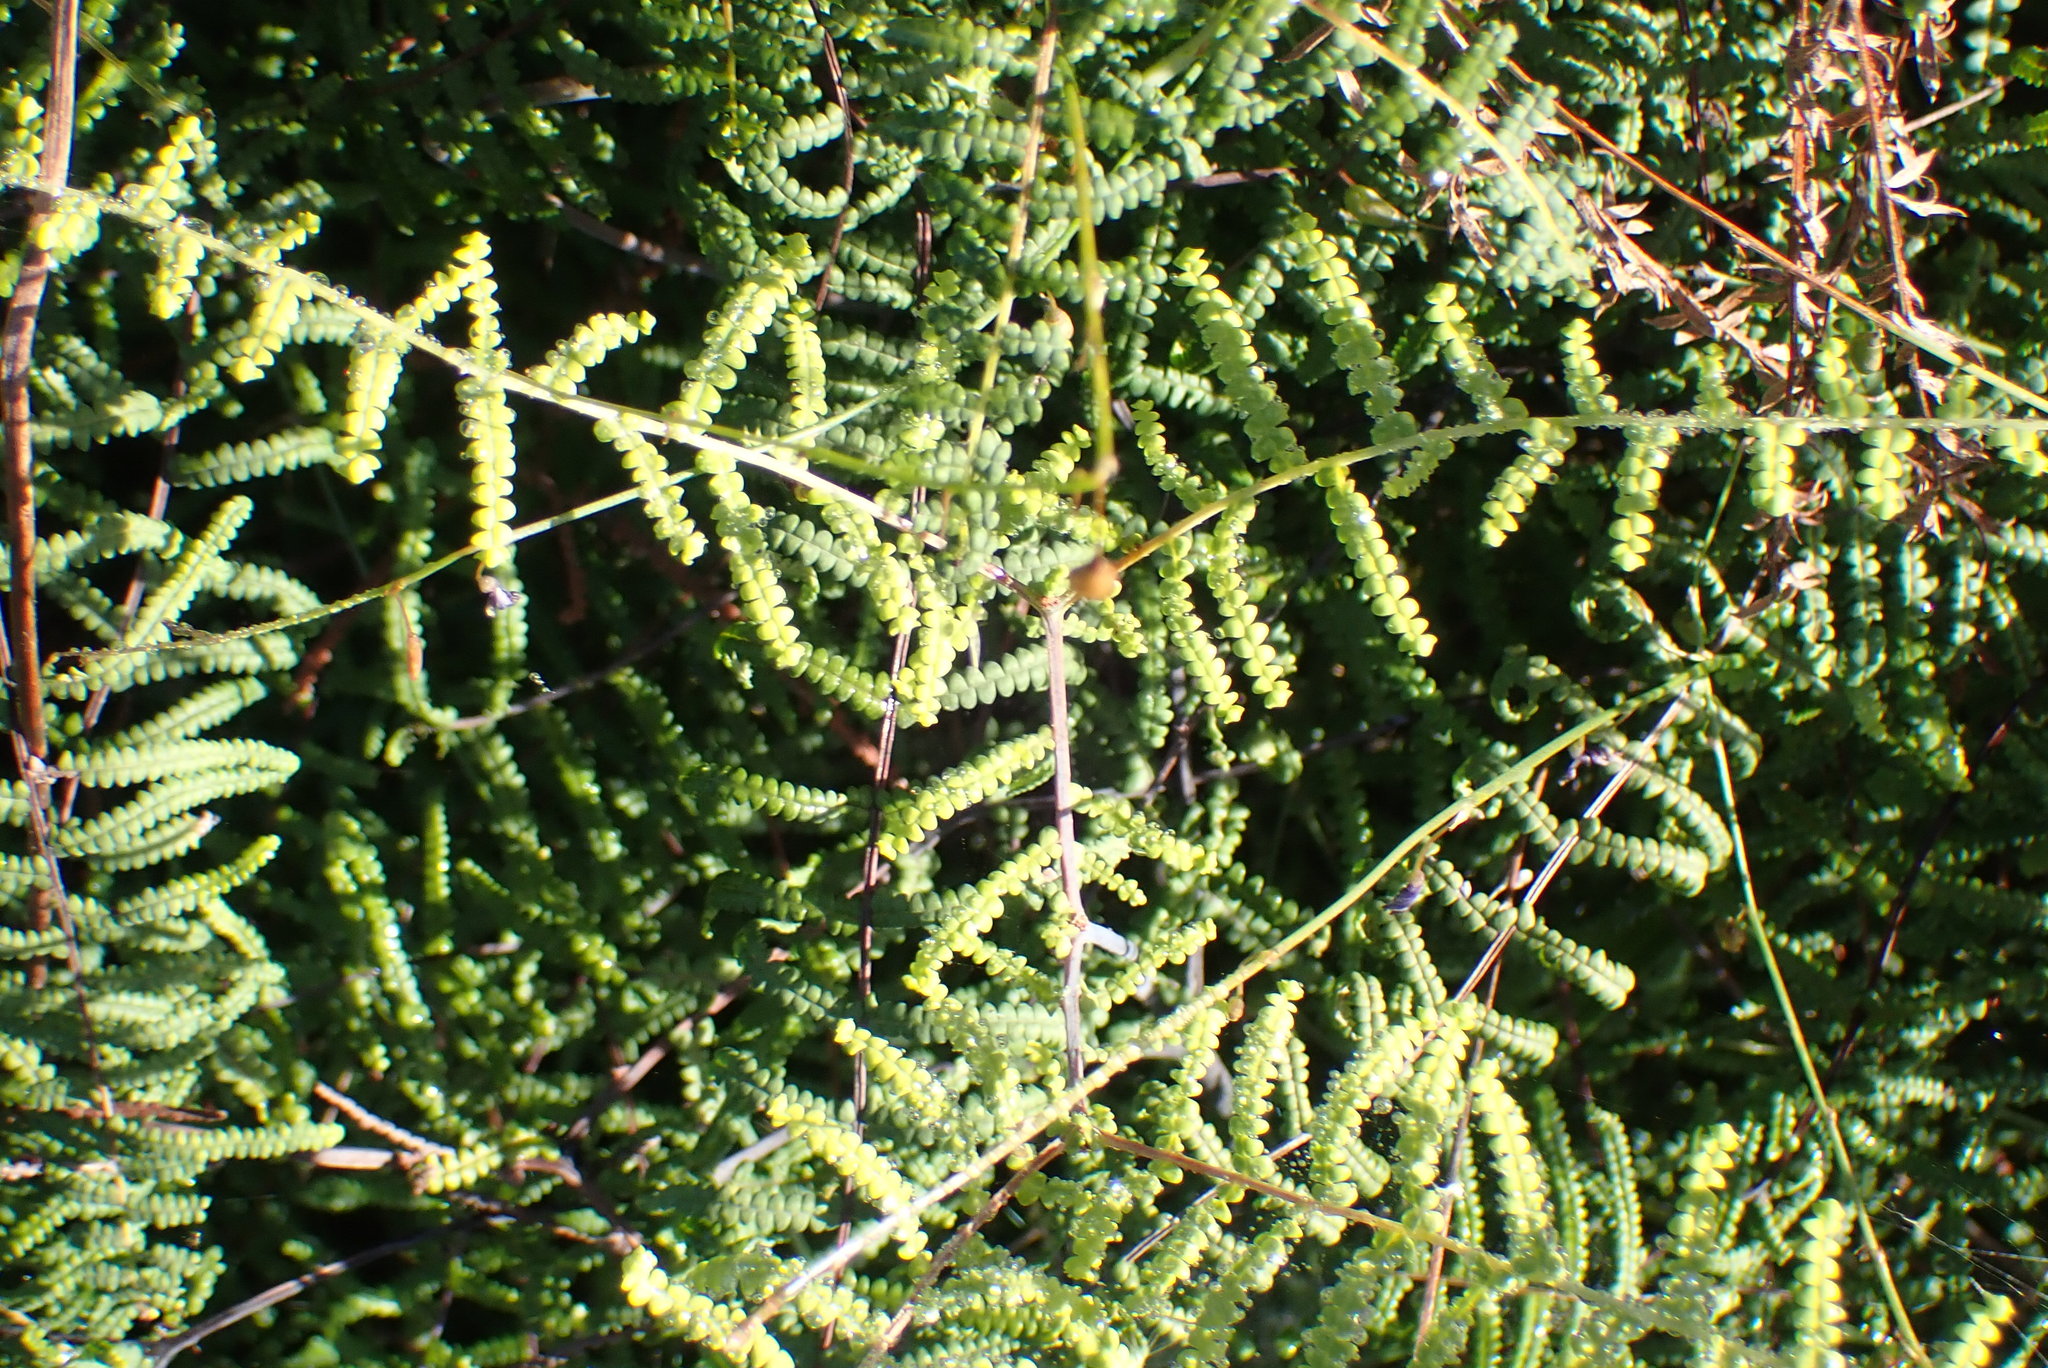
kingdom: Plantae
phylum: Tracheophyta
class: Polypodiopsida
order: Gleicheniales
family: Gleicheniaceae
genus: Gleichenia
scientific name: Gleichenia polypodioides
